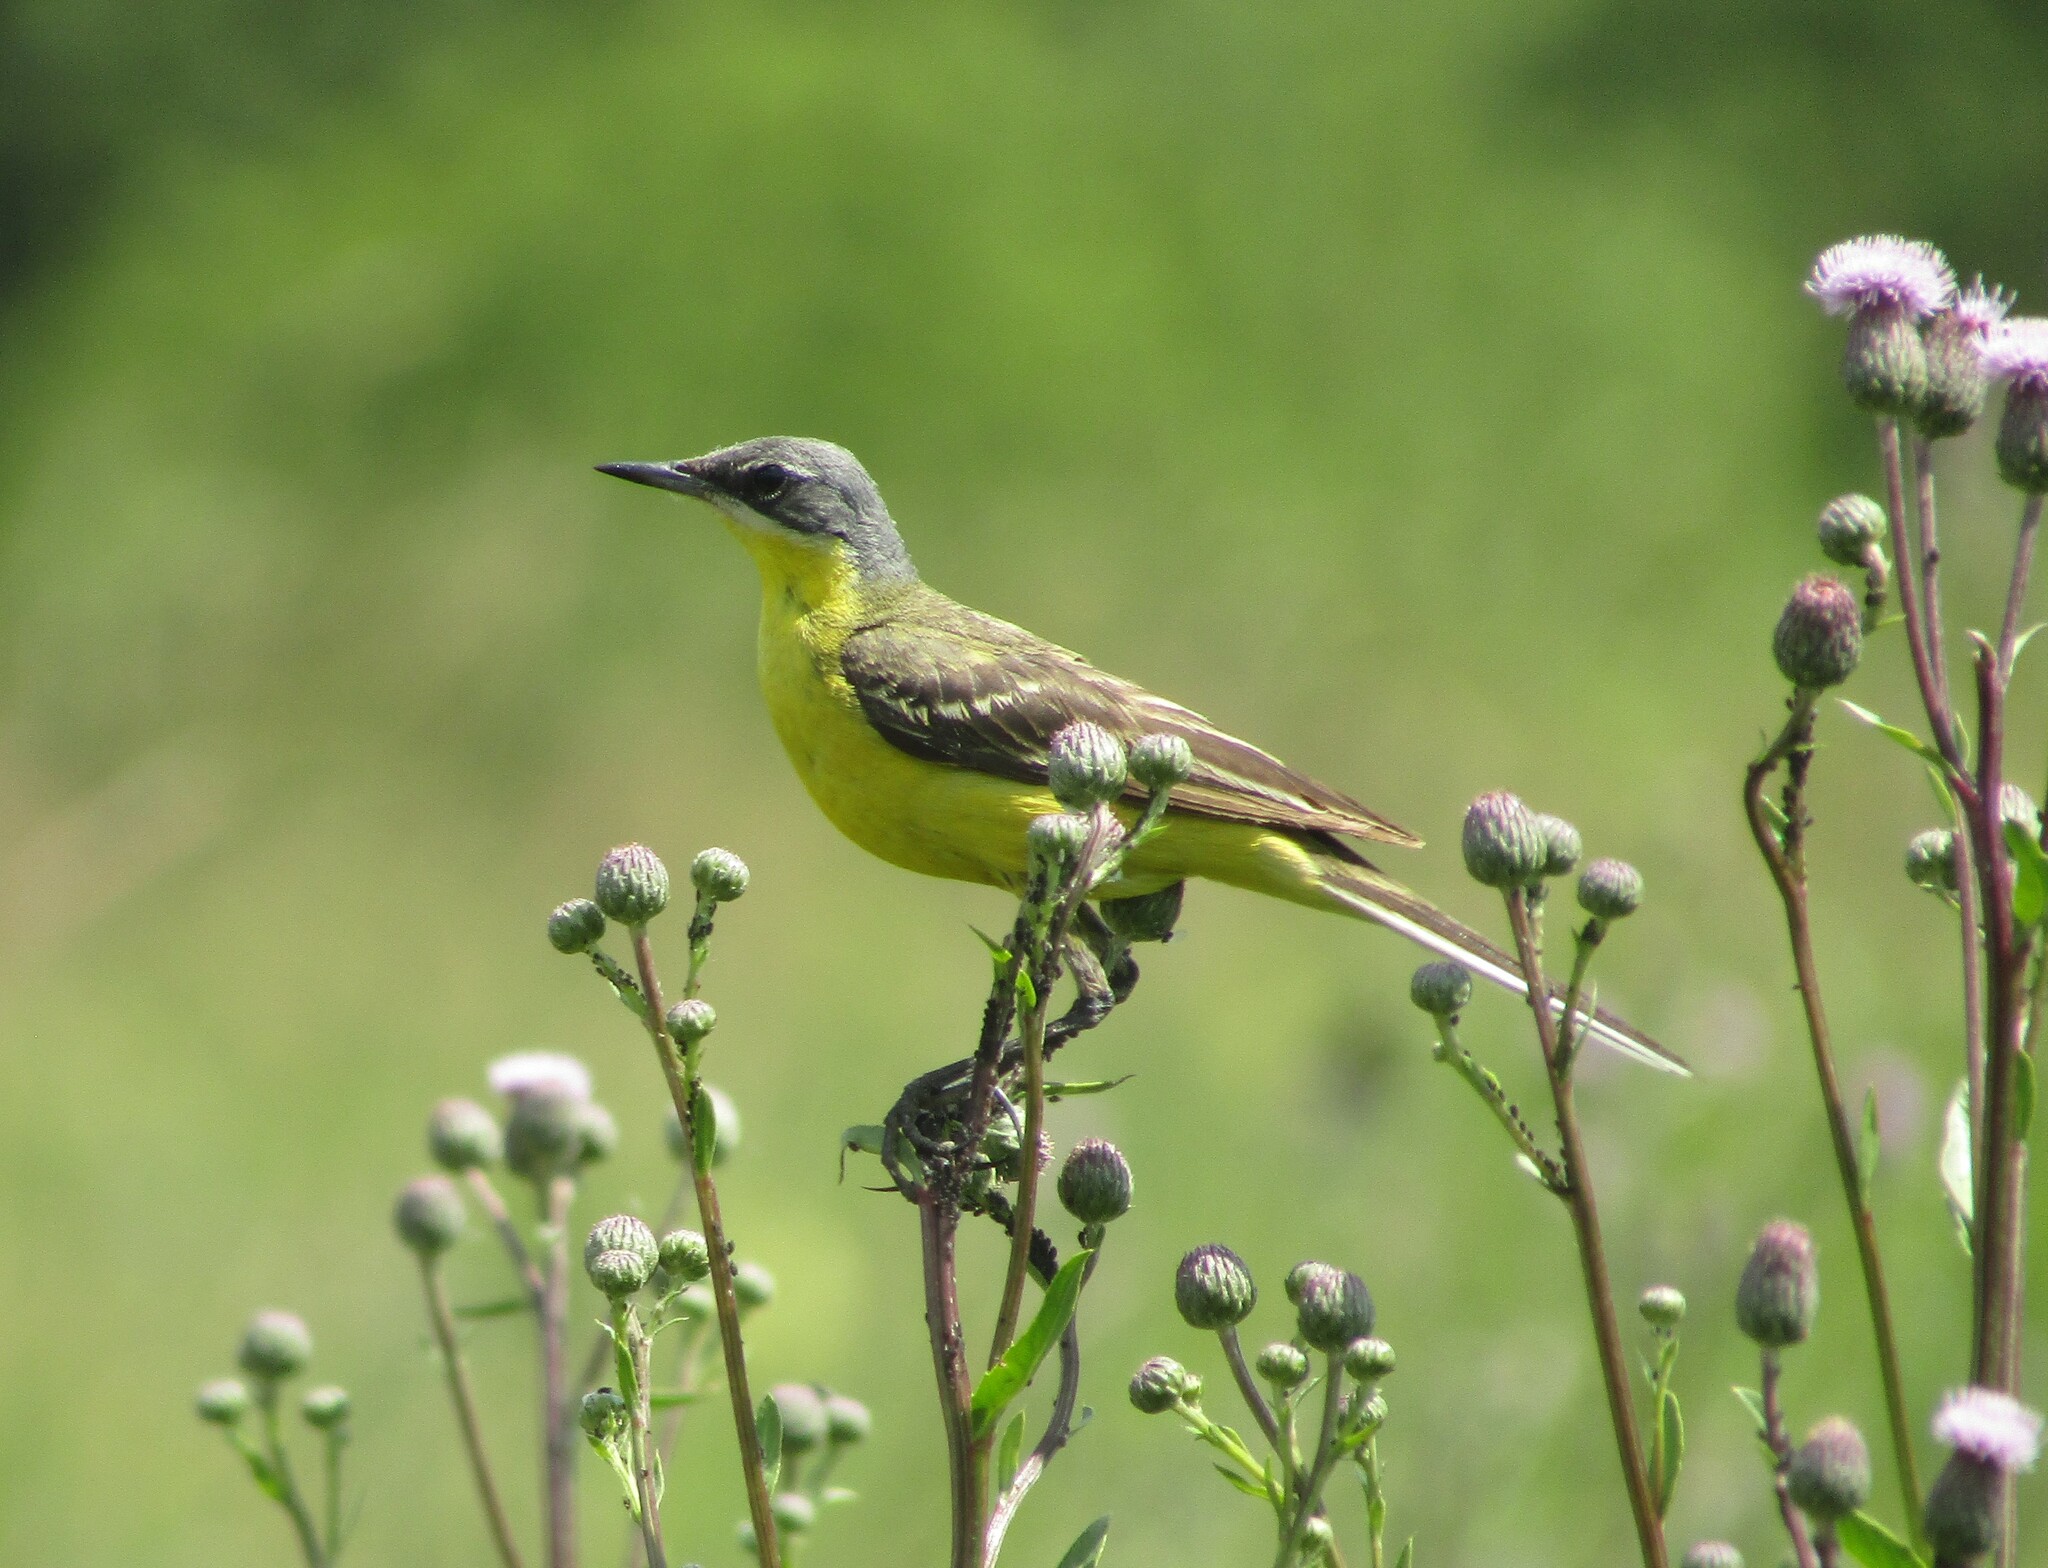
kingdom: Animalia
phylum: Chordata
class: Aves
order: Passeriformes
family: Motacillidae
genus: Motacilla
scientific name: Motacilla flava
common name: Western yellow wagtail
